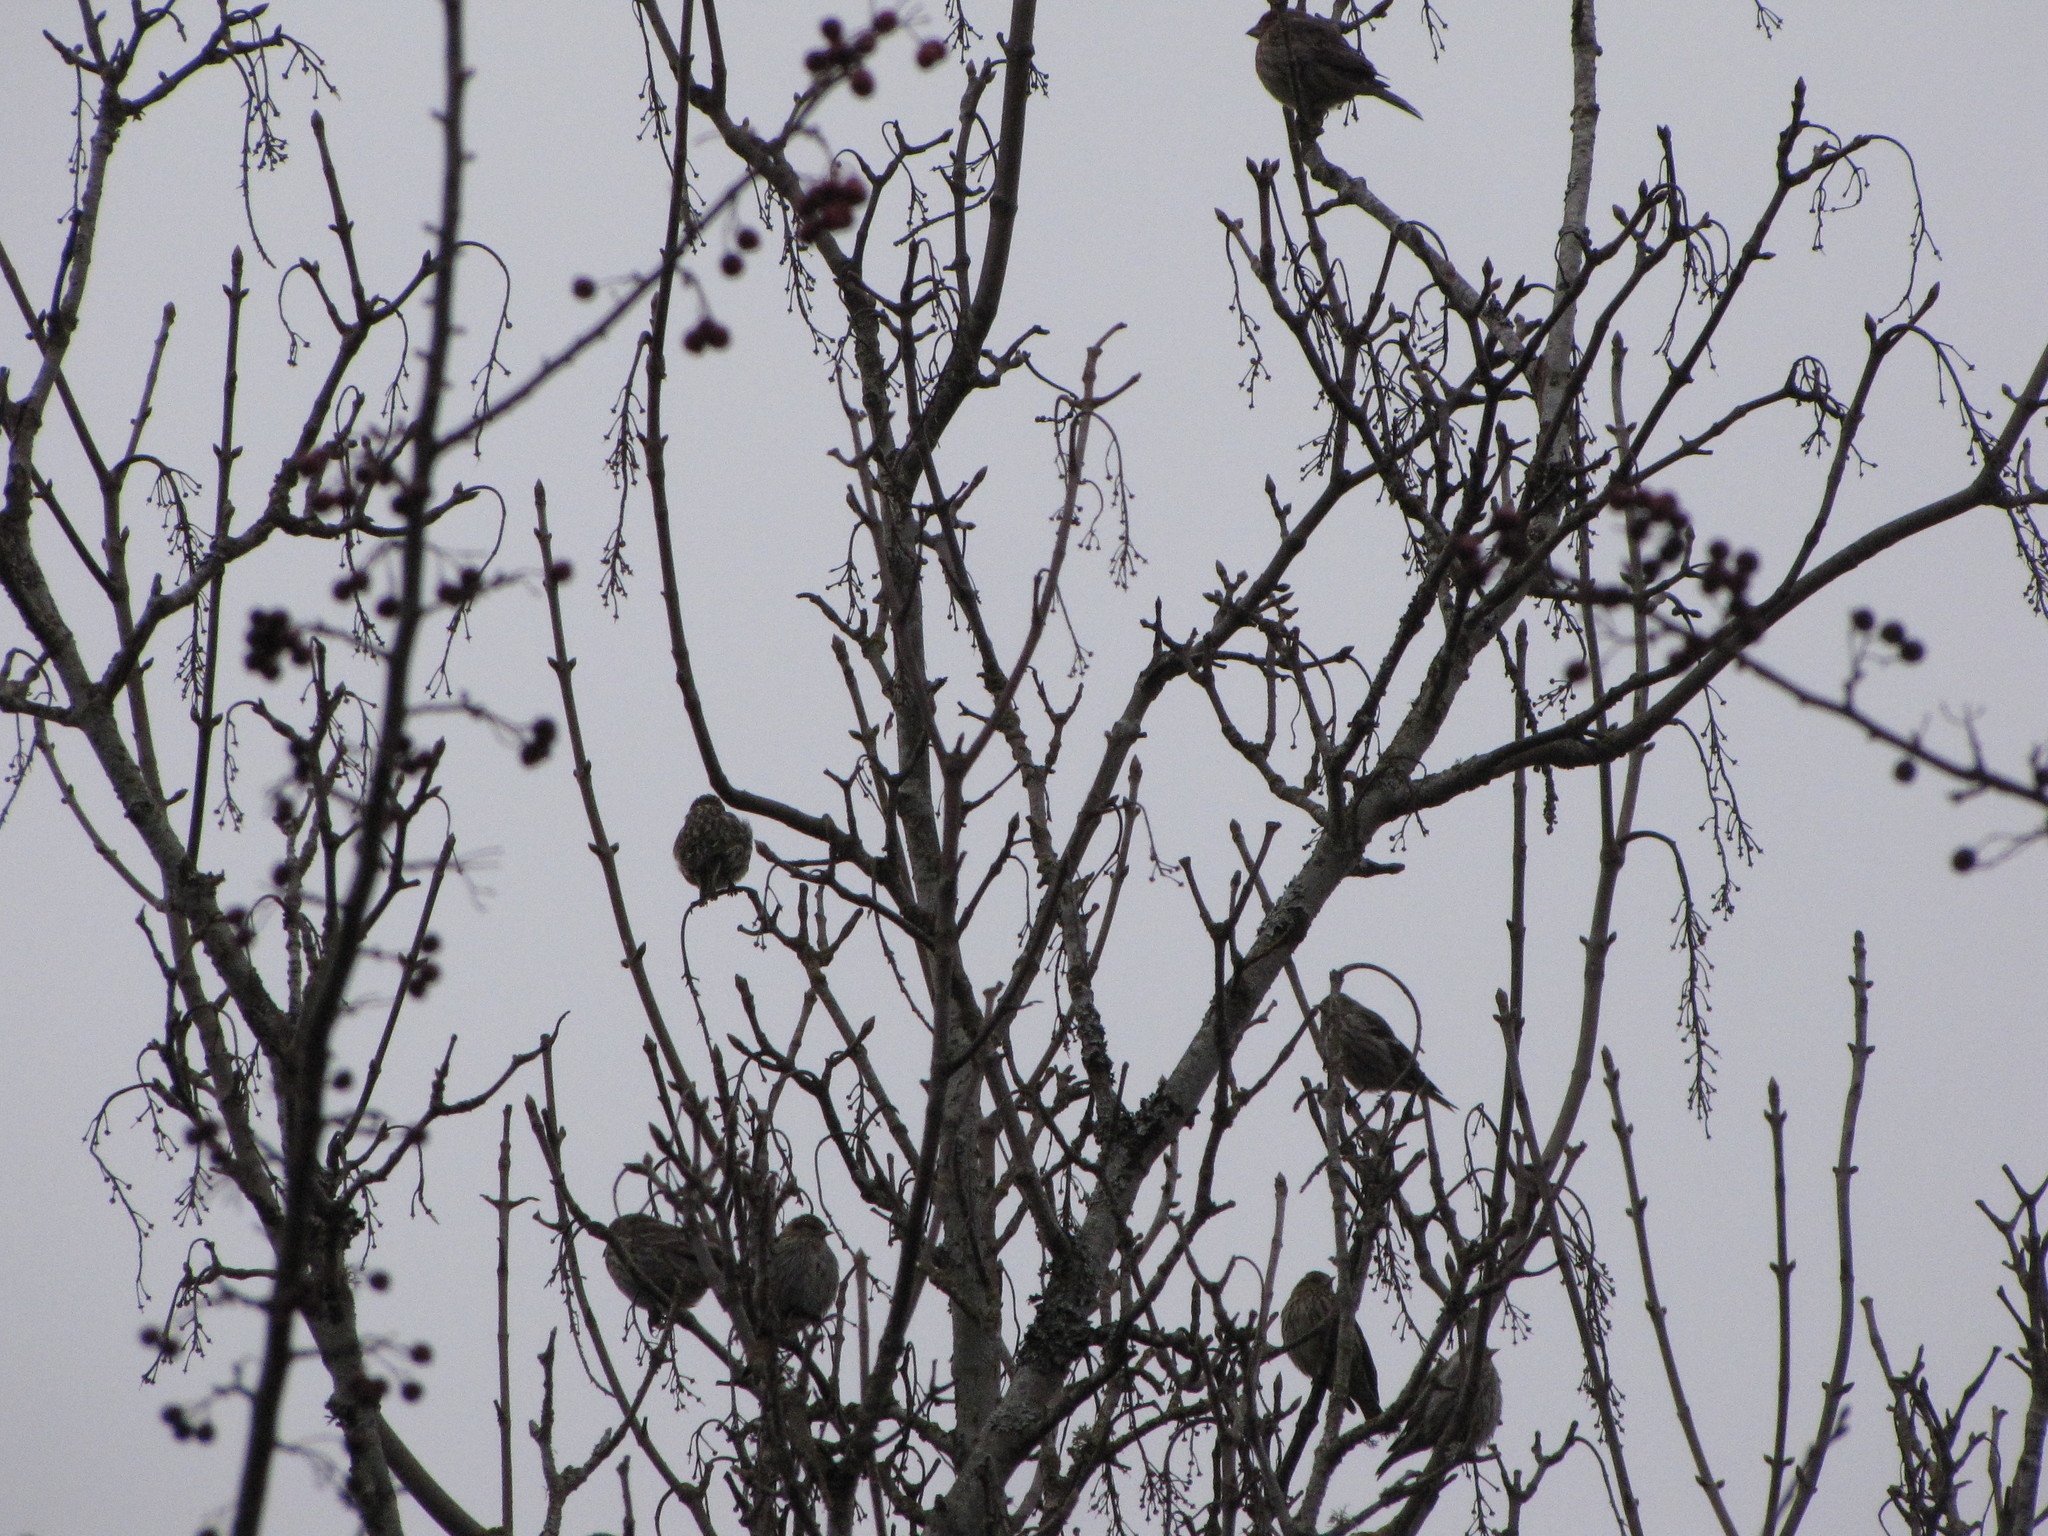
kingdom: Animalia
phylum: Chordata
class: Aves
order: Passeriformes
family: Fringillidae
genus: Spinus
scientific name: Spinus pinus
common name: Pine siskin
